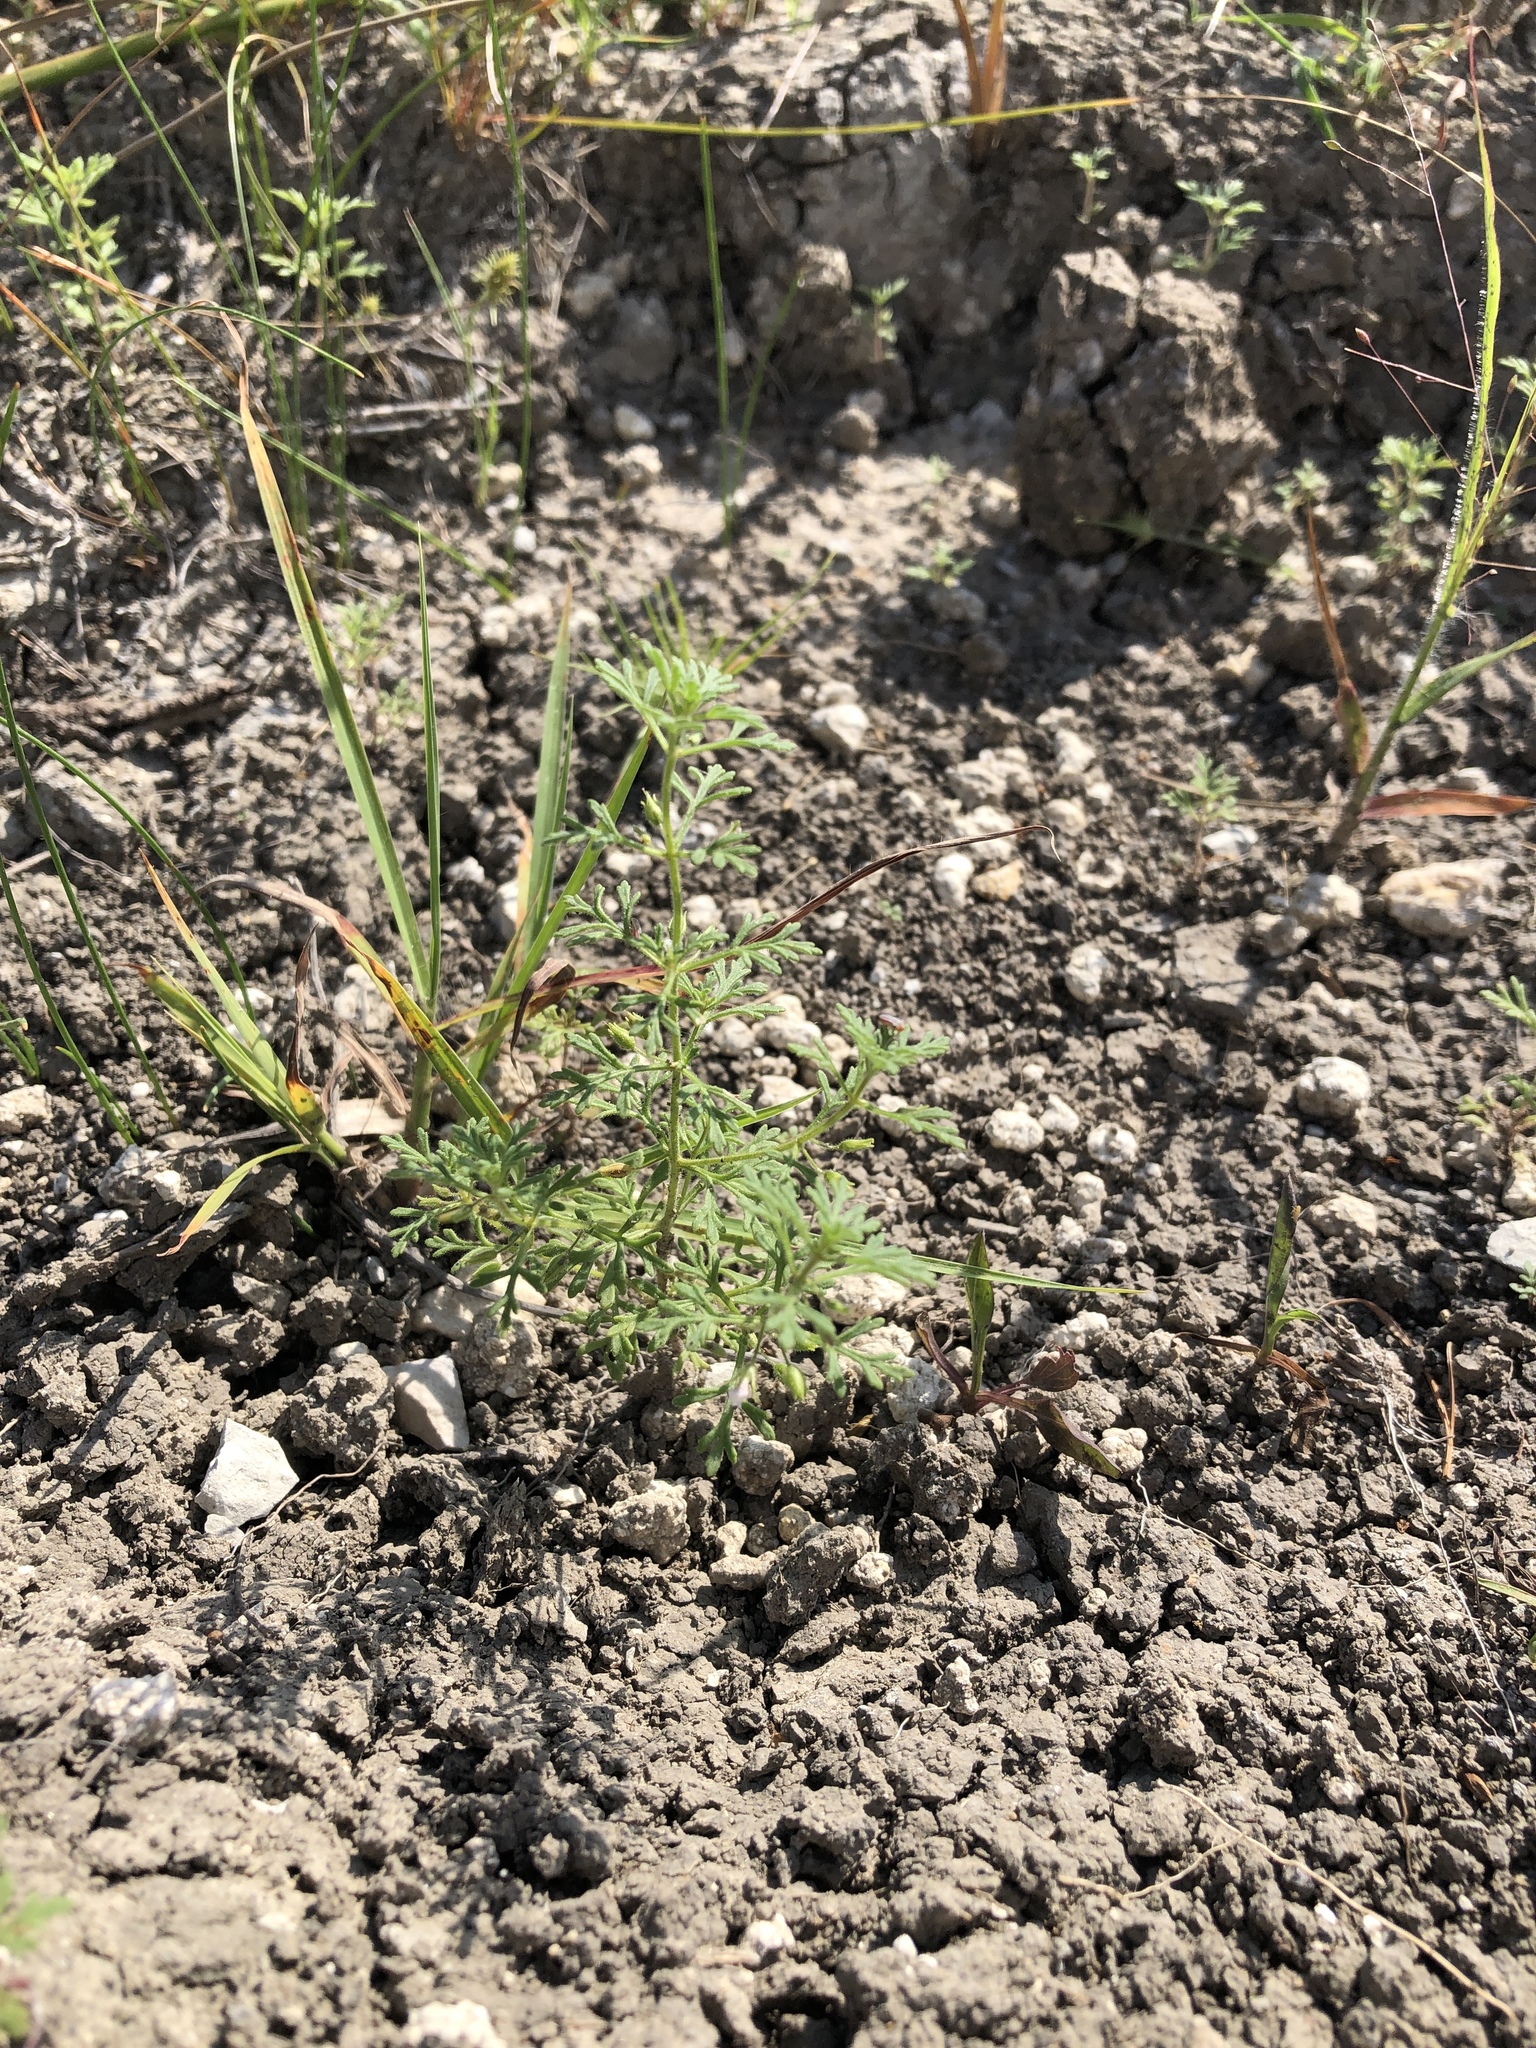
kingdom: Plantae
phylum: Tracheophyta
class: Magnoliopsida
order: Lamiales
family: Plantaginaceae
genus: Leucospora
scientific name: Leucospora multifida
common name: Narrow-leaf paleseed
